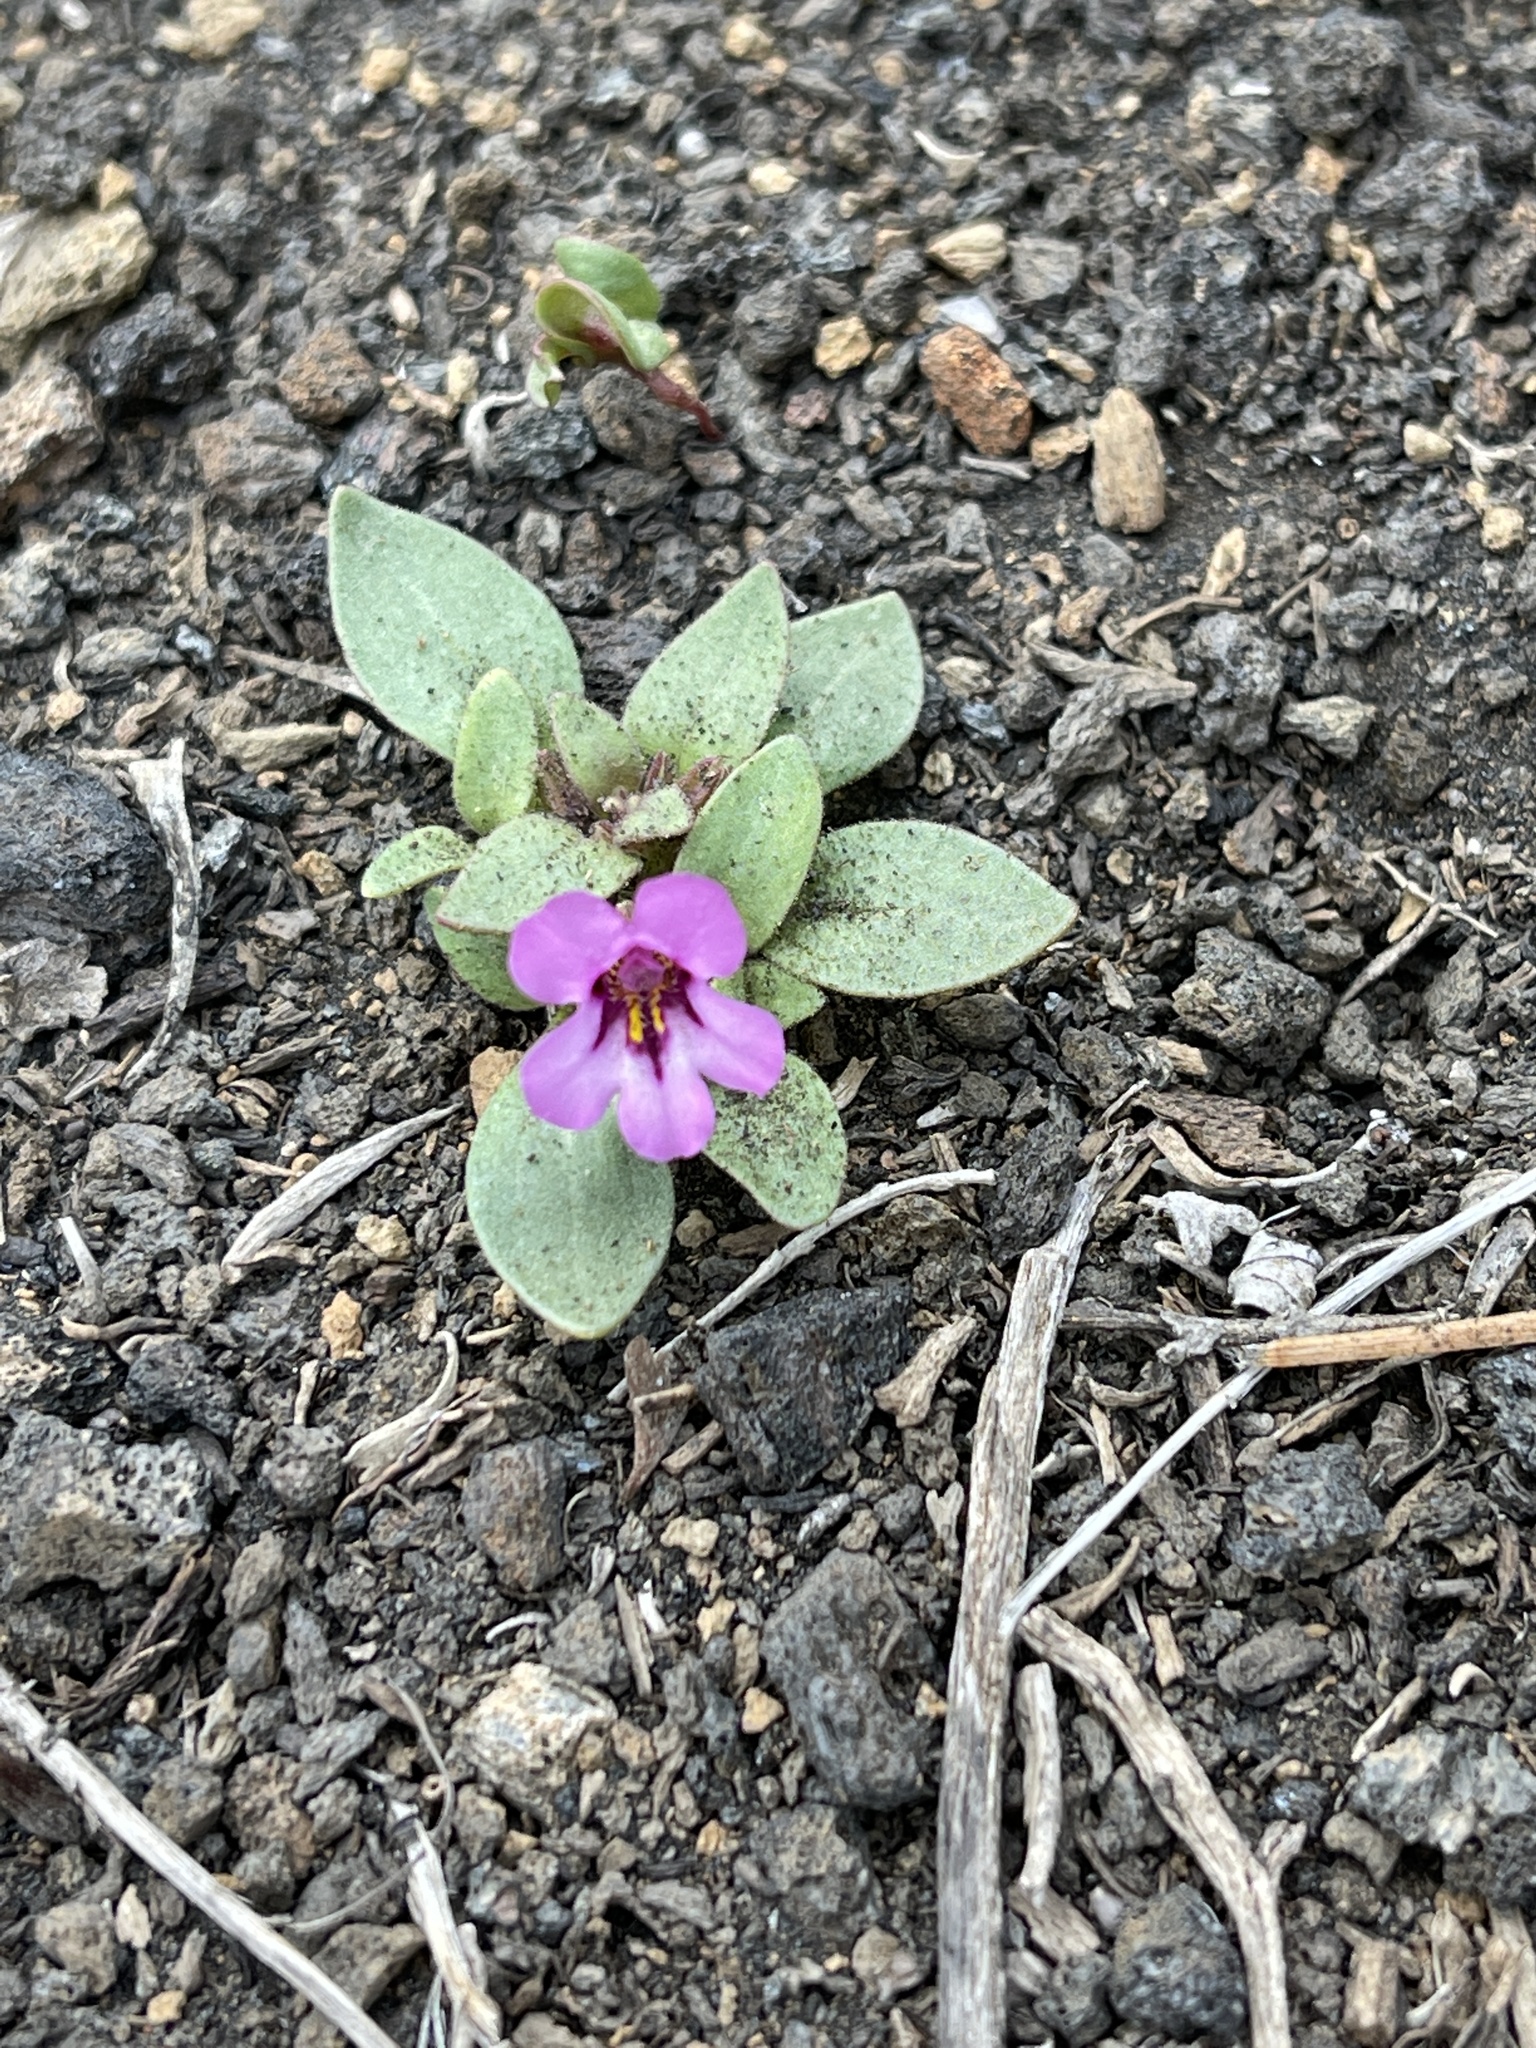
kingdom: Plantae
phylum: Tracheophyta
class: Magnoliopsida
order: Lamiales
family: Phrymaceae
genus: Diplacus
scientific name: Diplacus nanus
